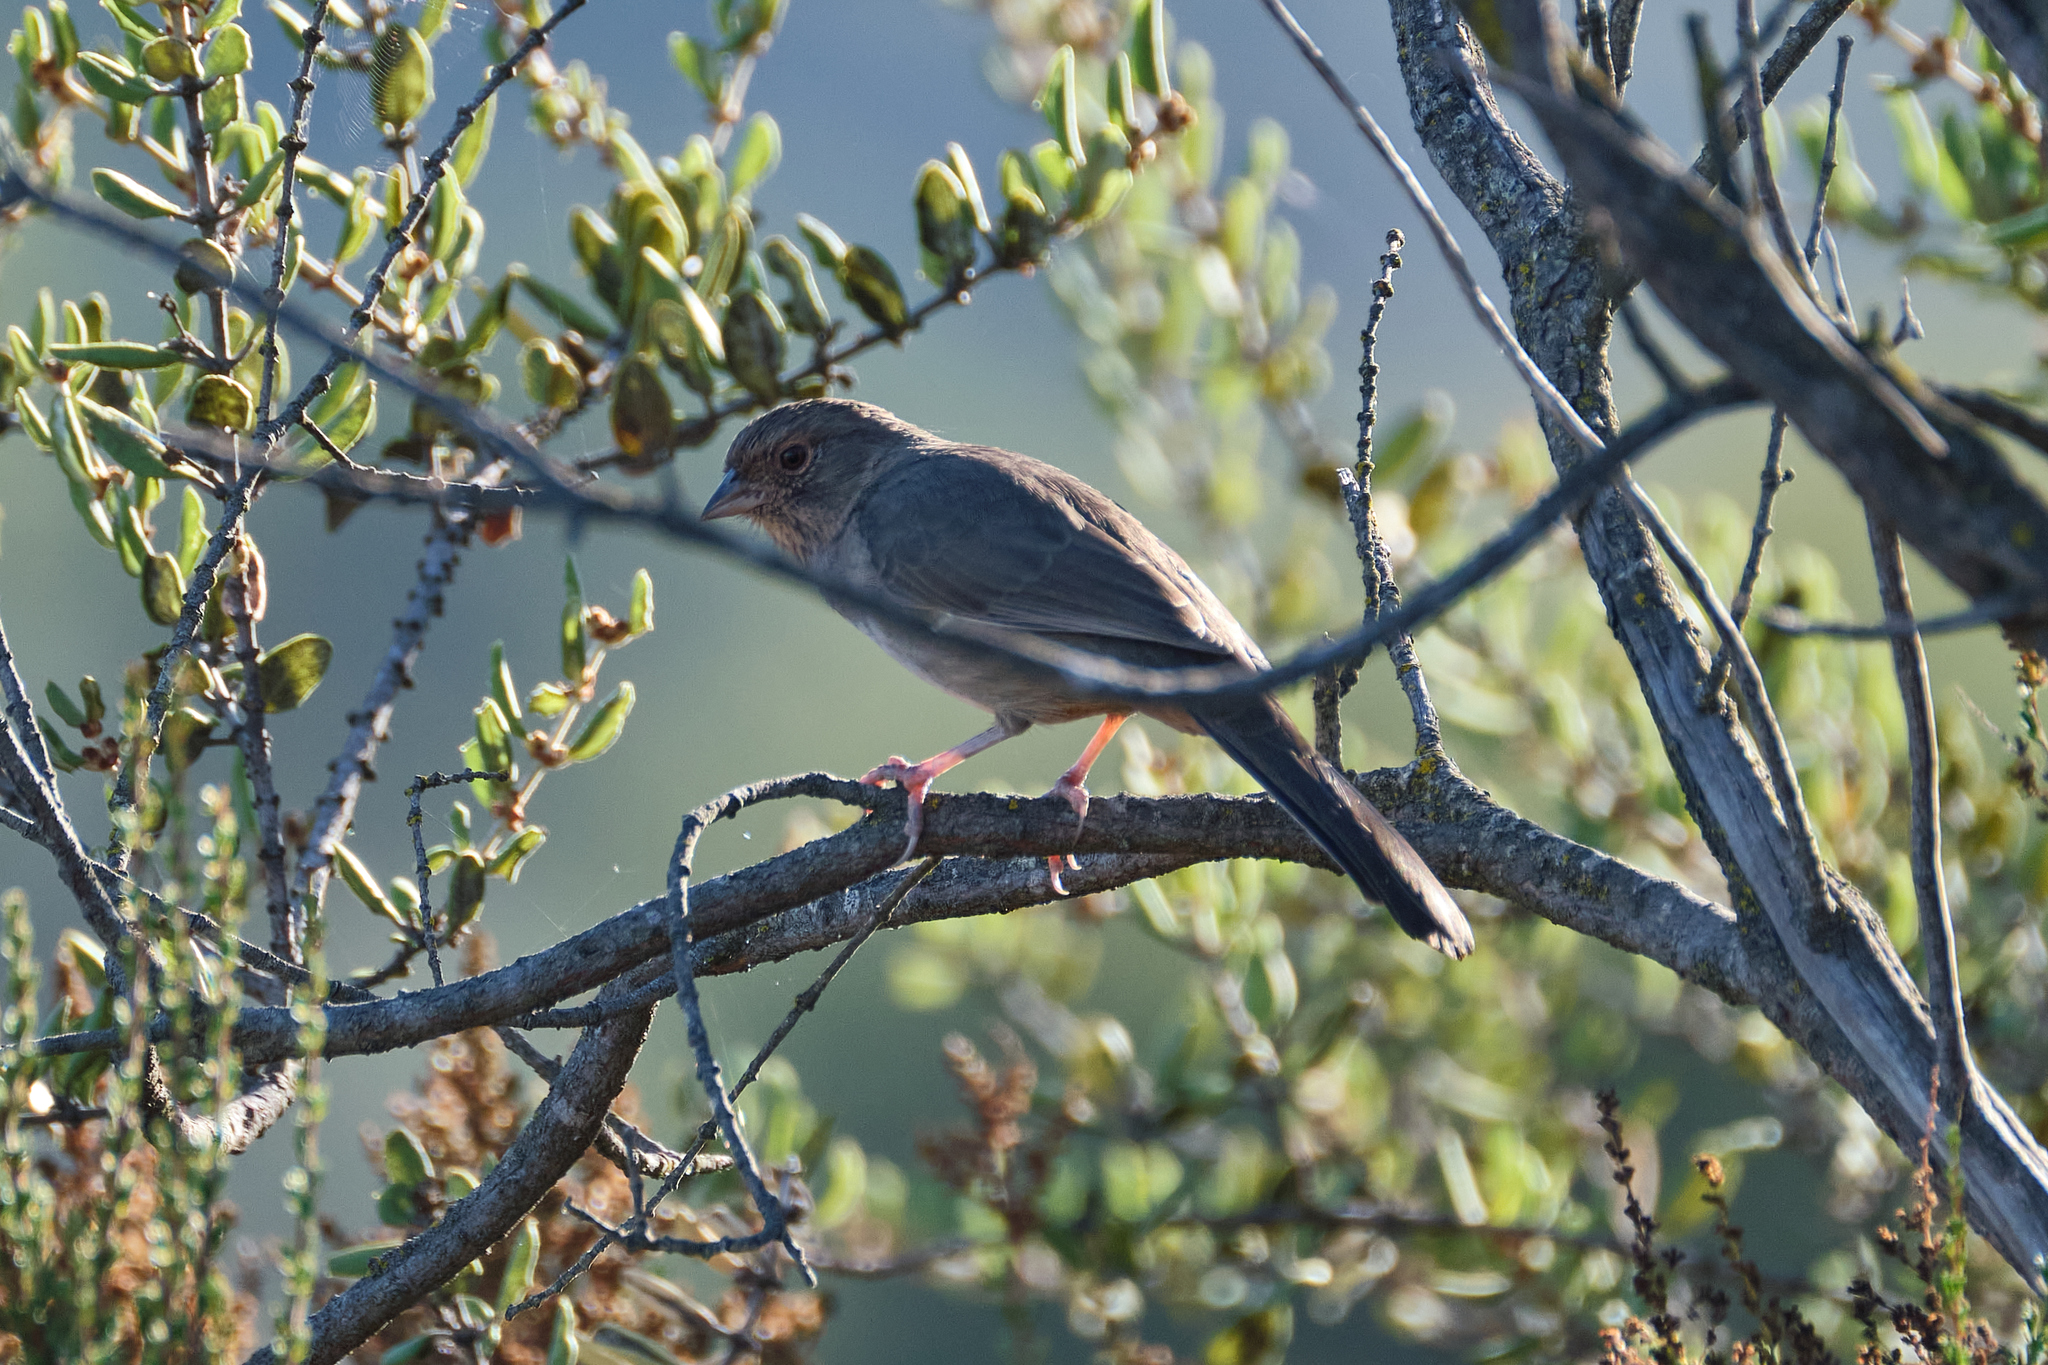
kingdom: Animalia
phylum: Chordata
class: Aves
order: Passeriformes
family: Passerellidae
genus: Melozone
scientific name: Melozone crissalis
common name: California towhee
